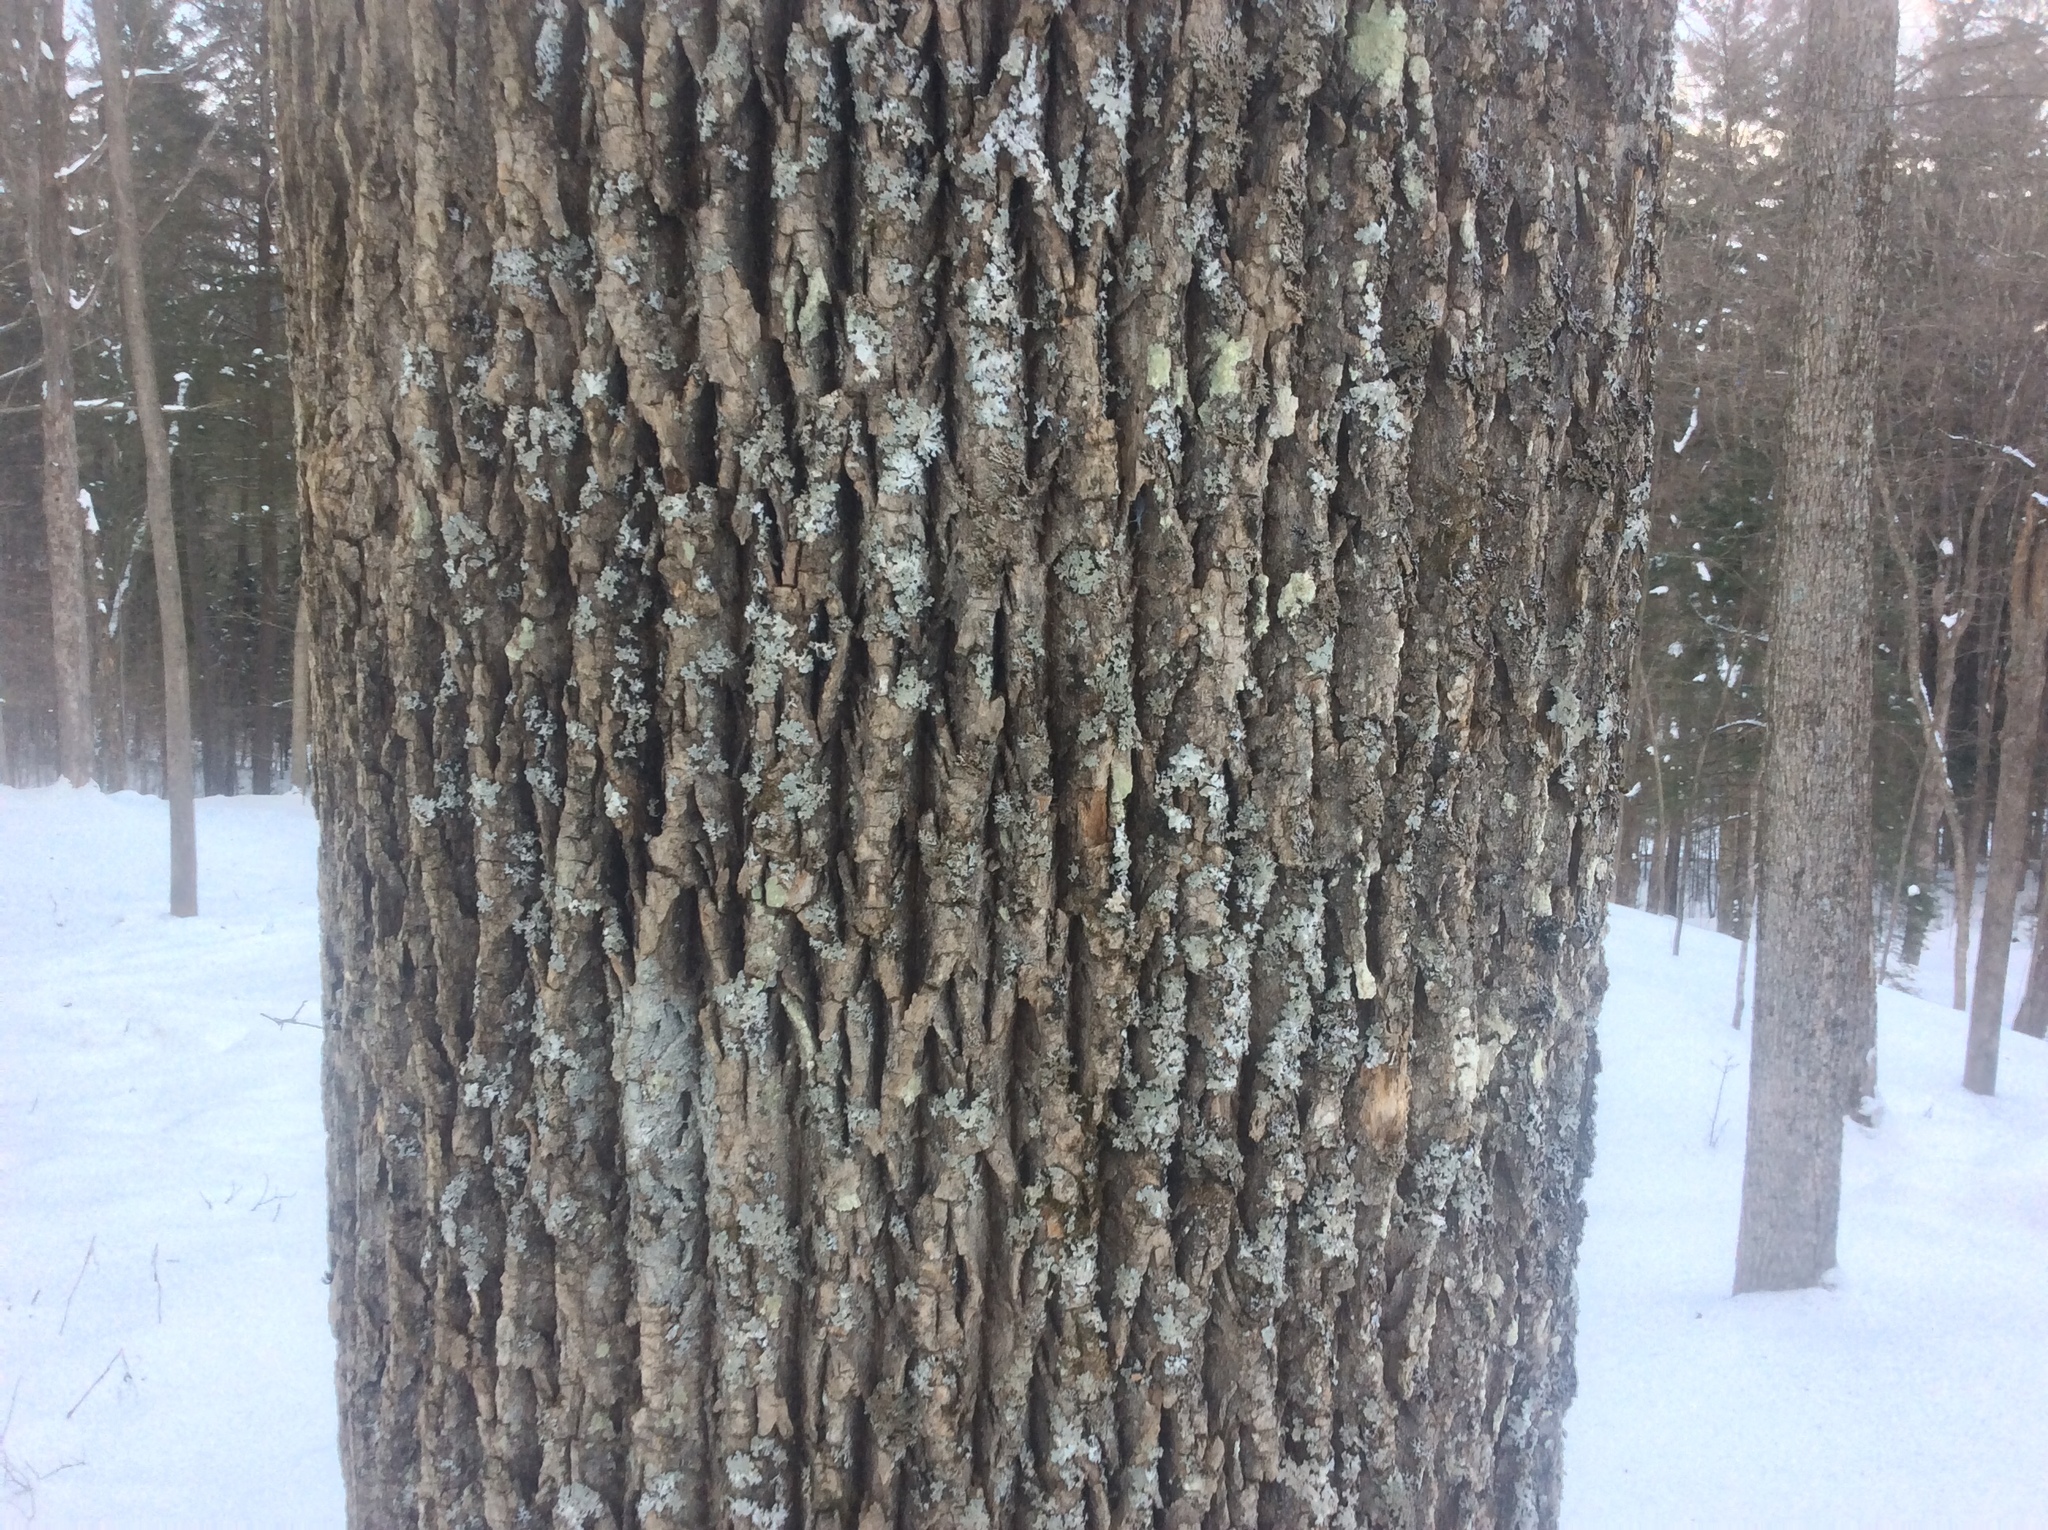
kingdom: Plantae
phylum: Tracheophyta
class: Magnoliopsida
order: Lamiales
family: Oleaceae
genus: Fraxinus
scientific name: Fraxinus americana
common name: White ash
